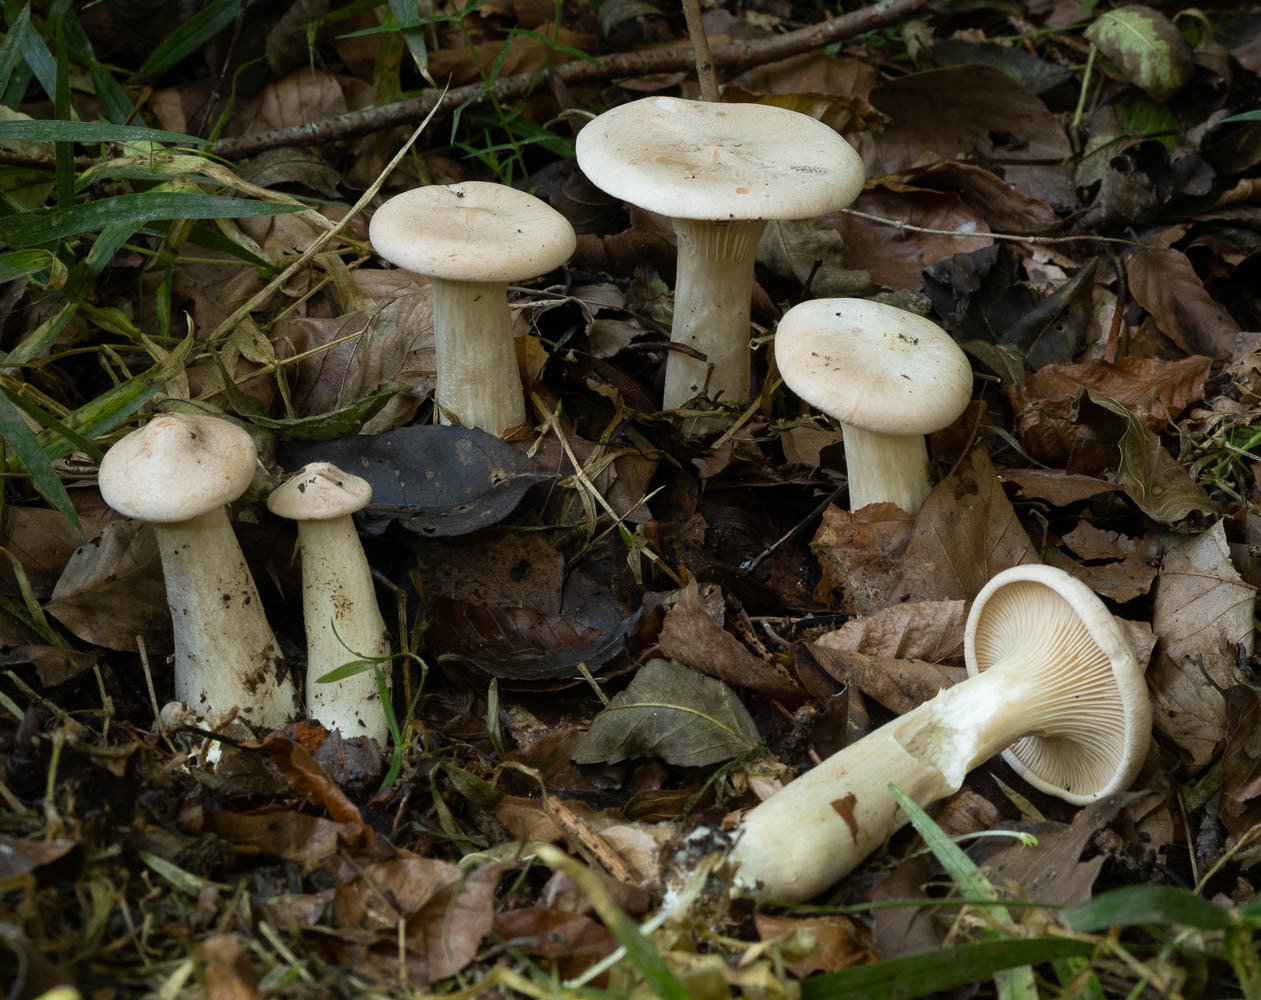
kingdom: Fungi
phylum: Basidiomycota
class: Agaricomycetes
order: Agaricales
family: Tricholomataceae
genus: Infundibulicybe
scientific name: Infundibulicybe geotropa
